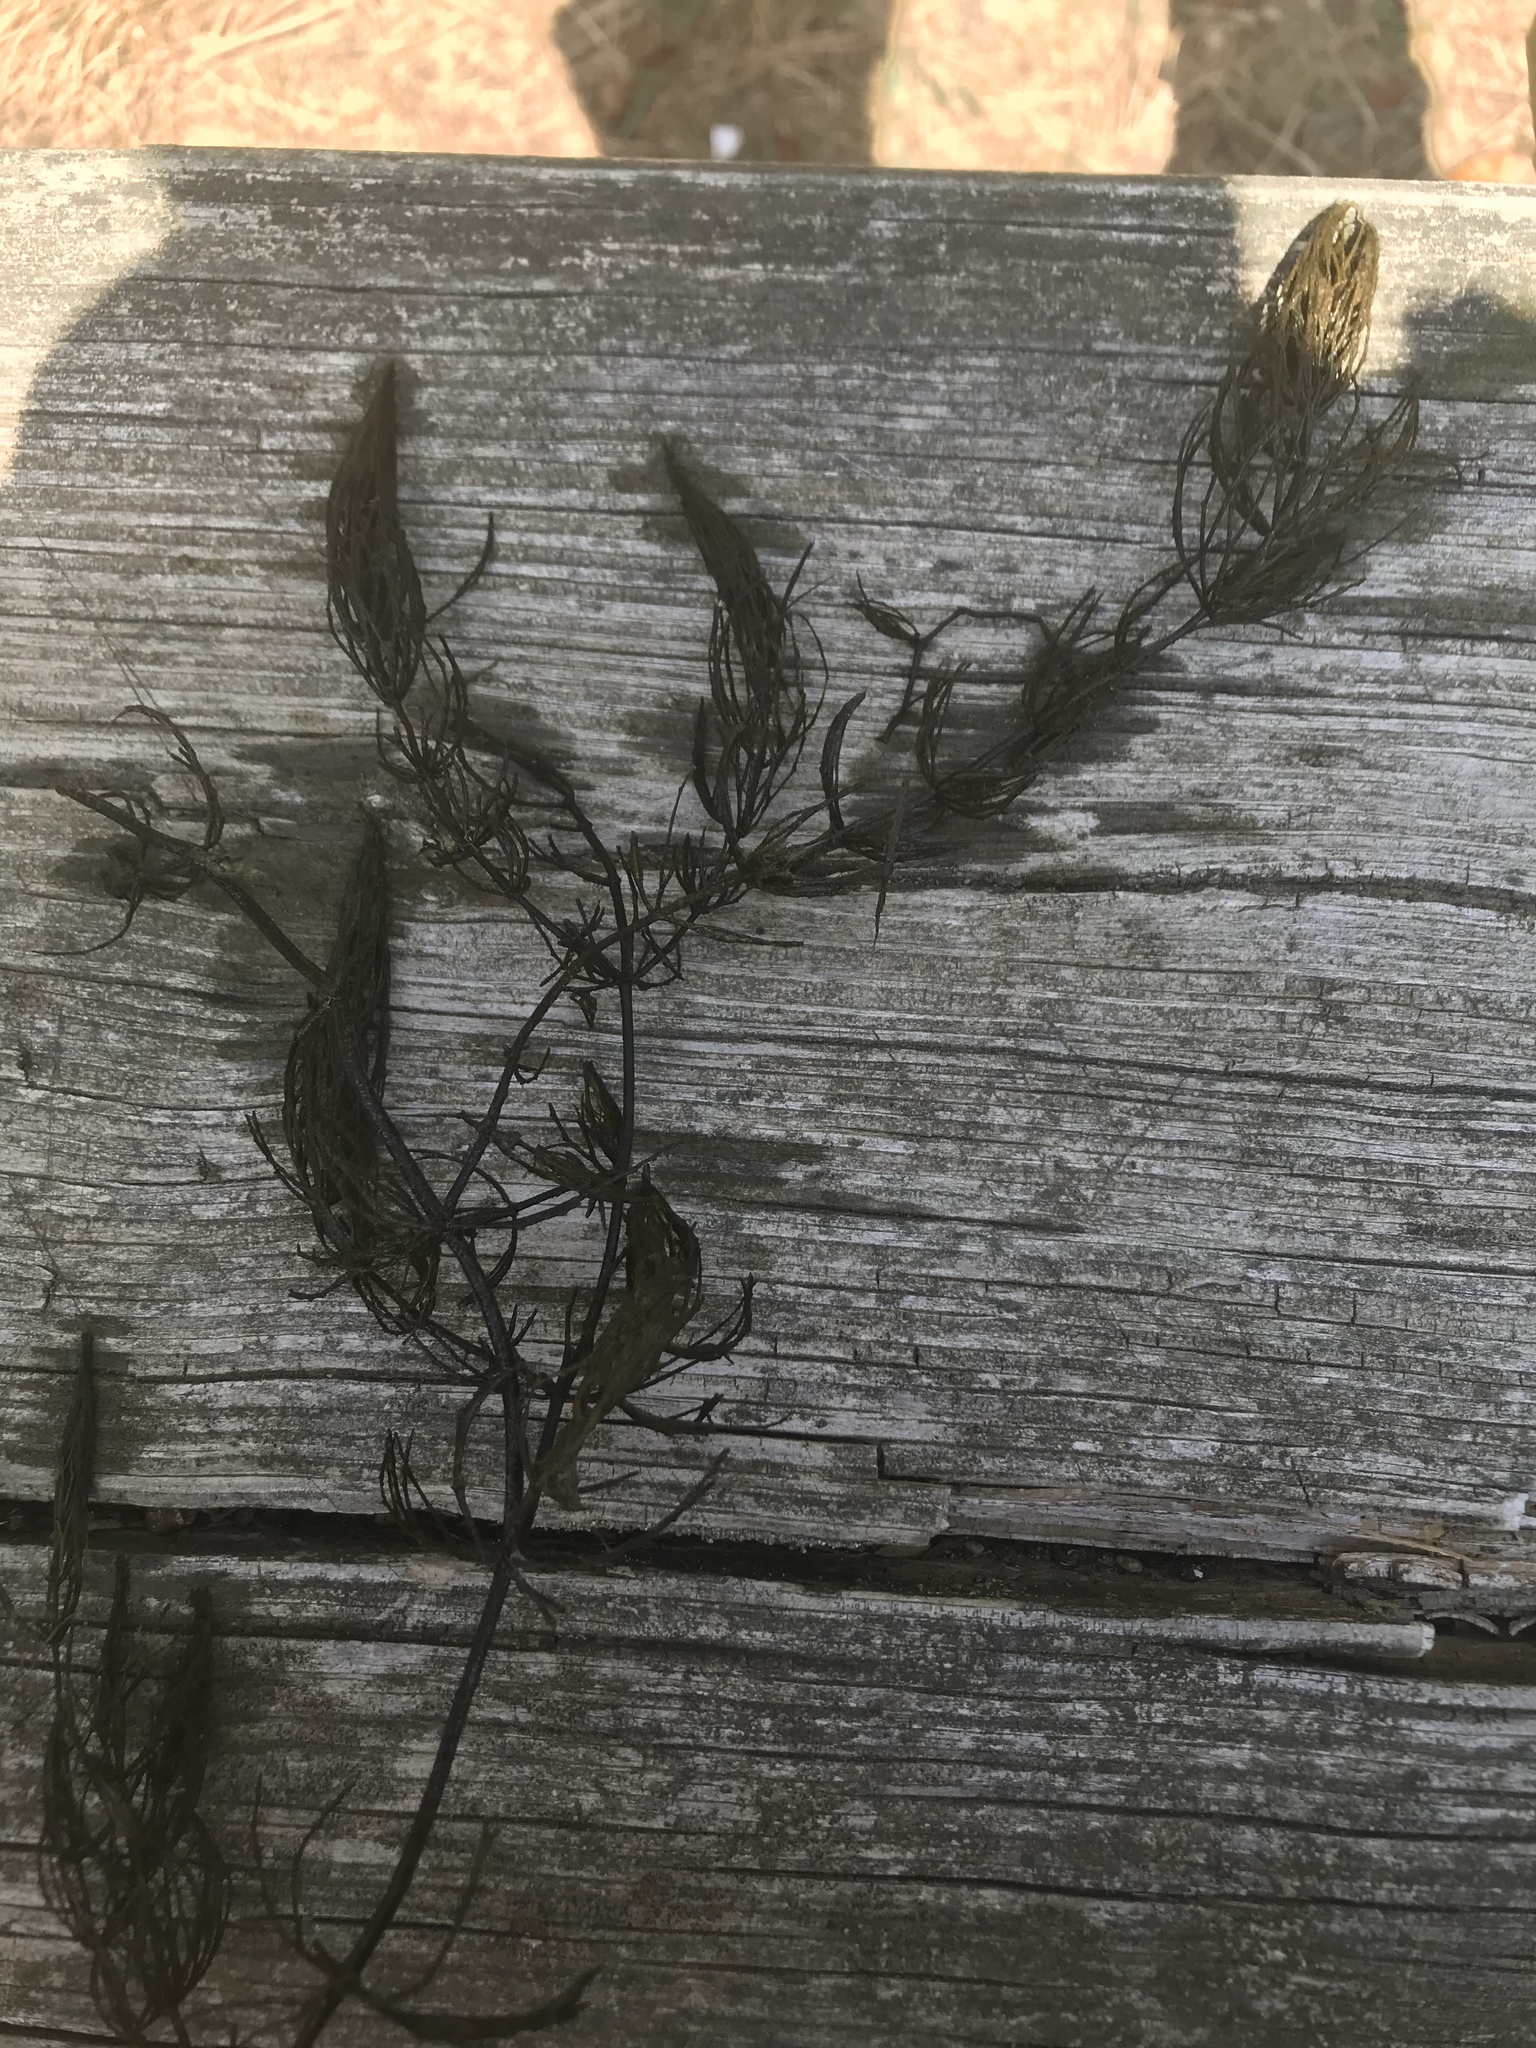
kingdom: Plantae
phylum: Tracheophyta
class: Magnoliopsida
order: Ceratophyllales
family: Ceratophyllaceae
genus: Ceratophyllum
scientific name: Ceratophyllum demersum
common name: Rigid hornwort
